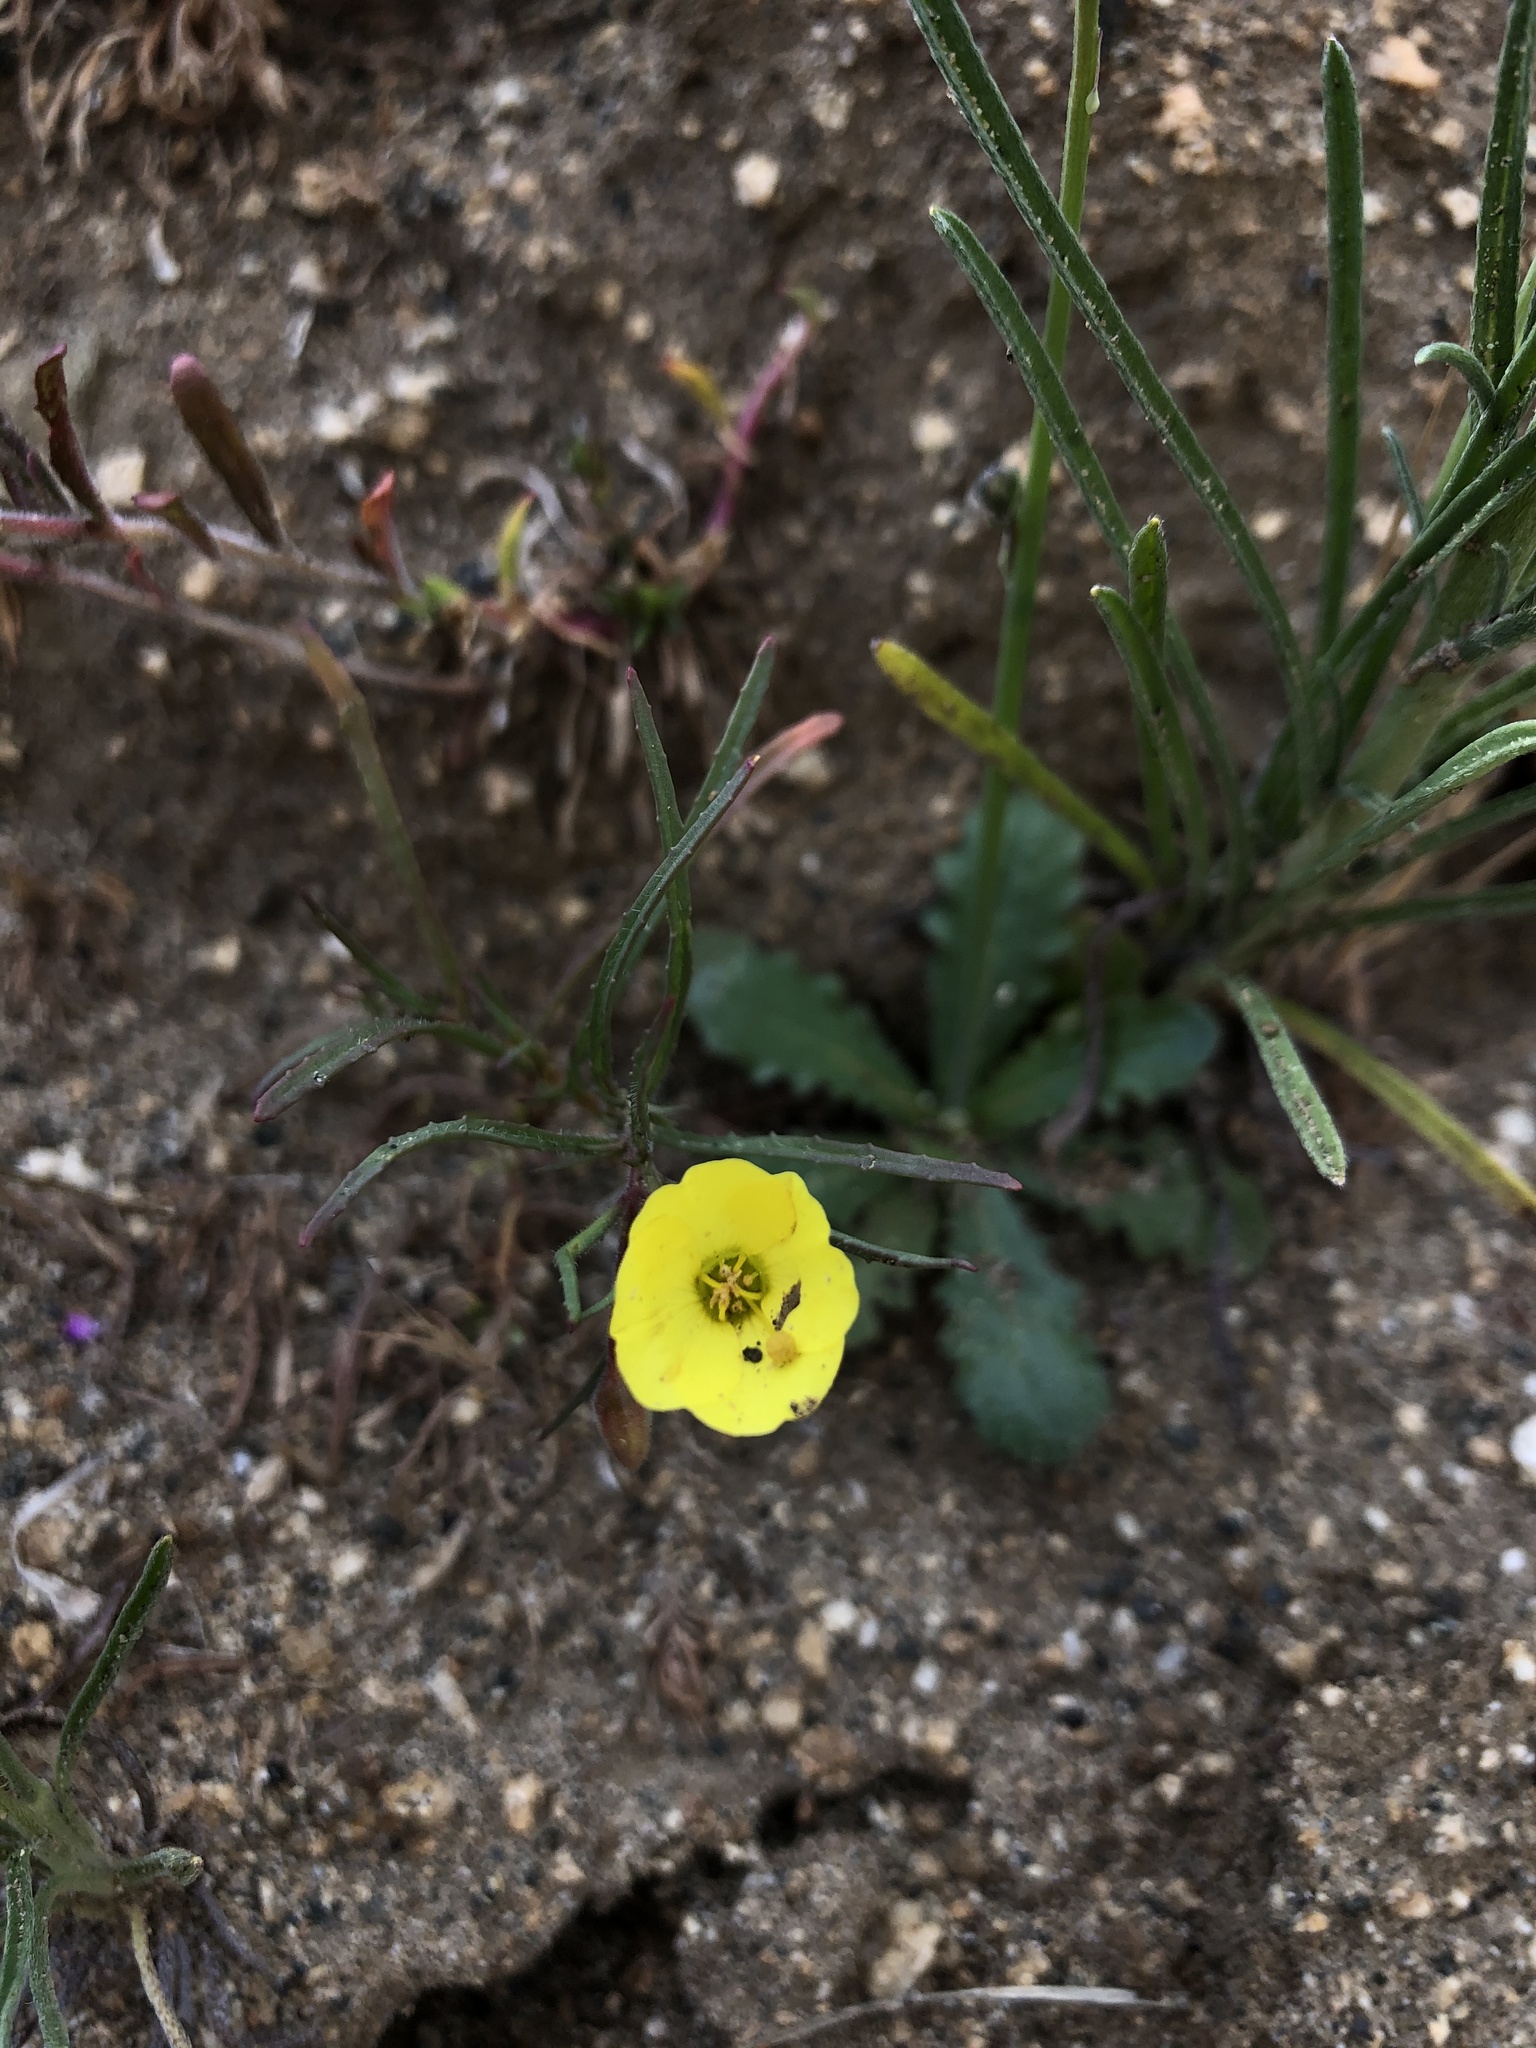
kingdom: Plantae
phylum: Tracheophyta
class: Magnoliopsida
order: Myrtales
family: Onagraceae
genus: Camissonia
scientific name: Camissonia campestris
